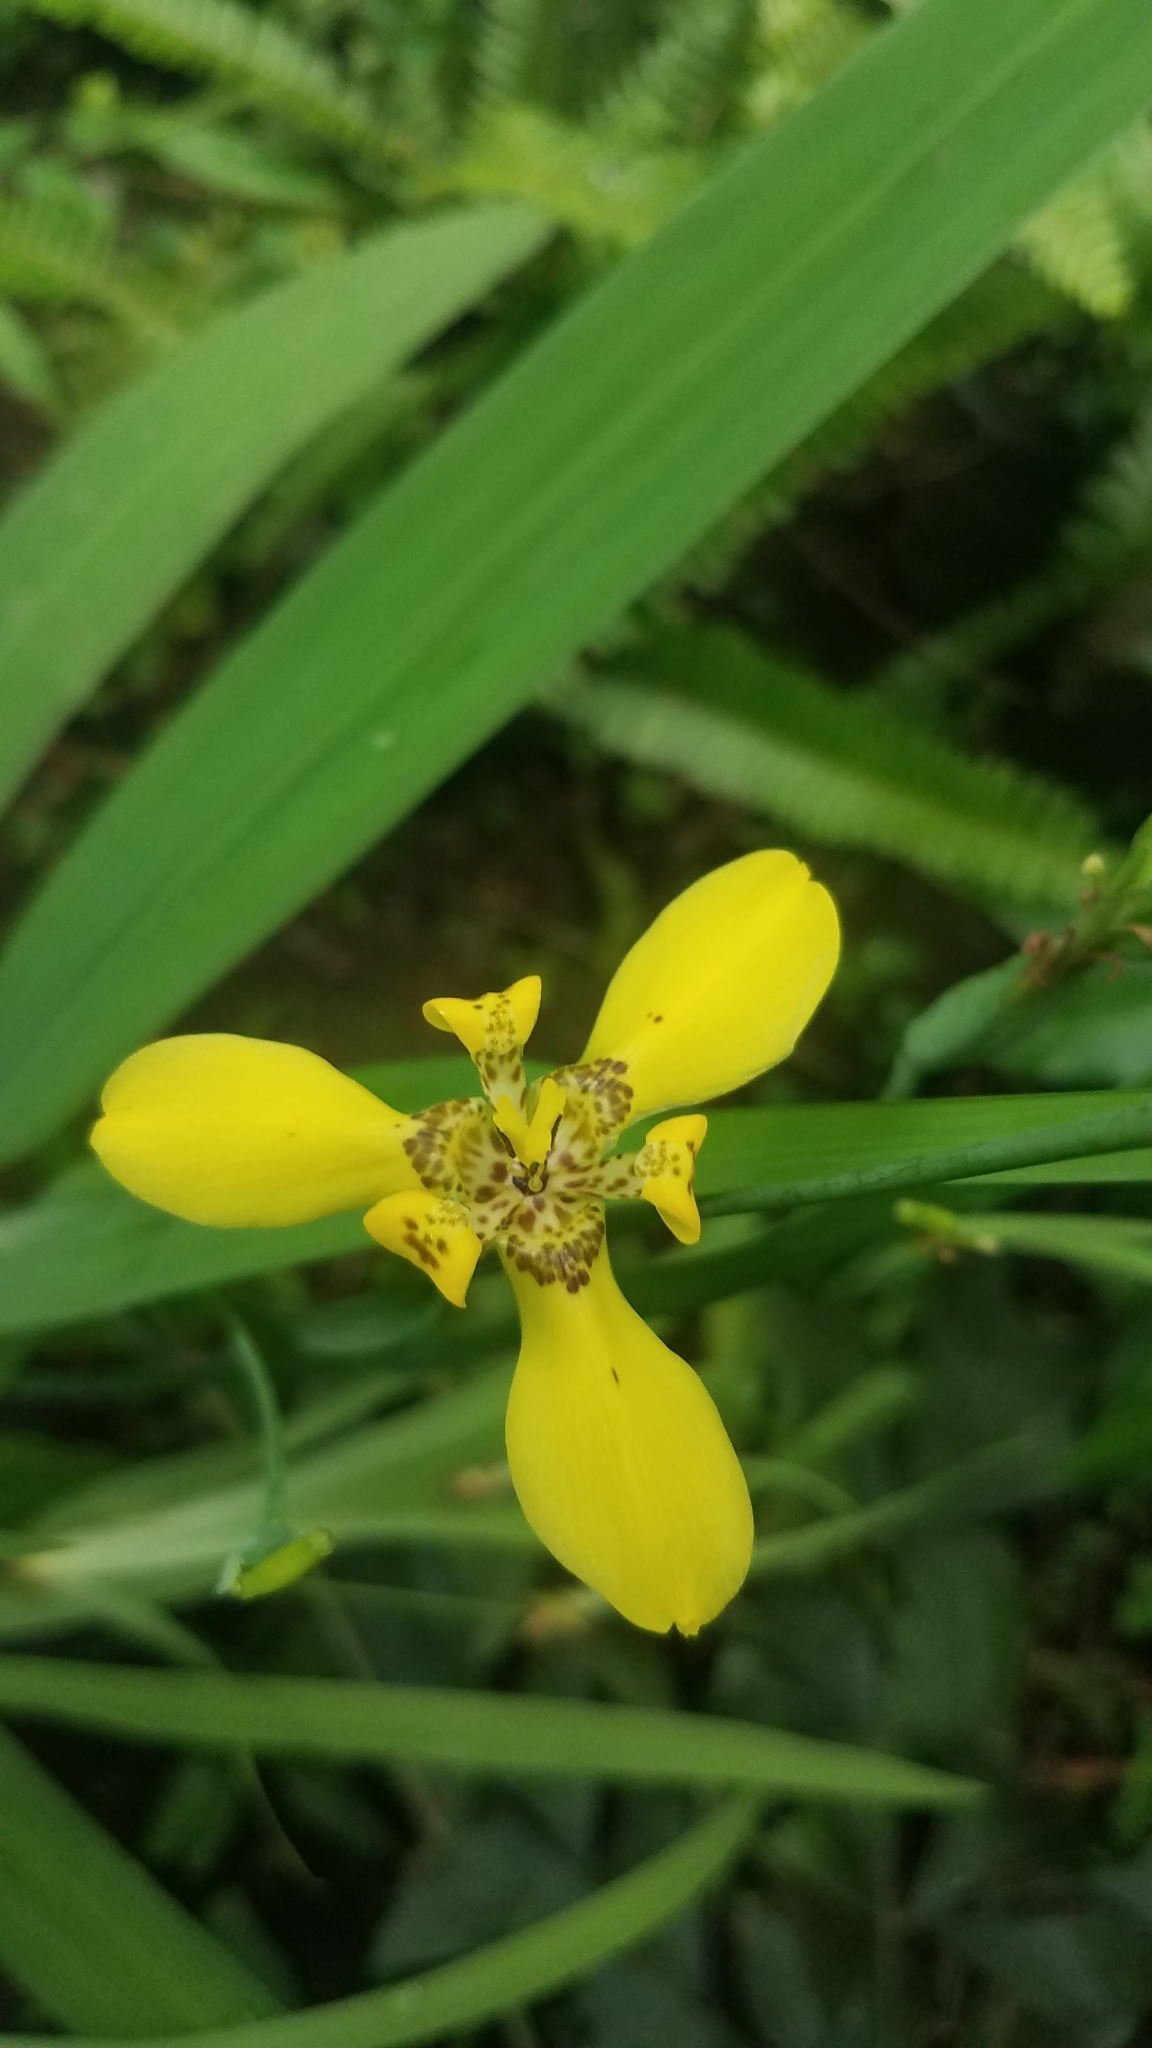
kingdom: Plantae
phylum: Tracheophyta
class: Liliopsida
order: Asparagales
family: Iridaceae
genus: Trimezia
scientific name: Trimezia steyermarkii
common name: Trimezia
